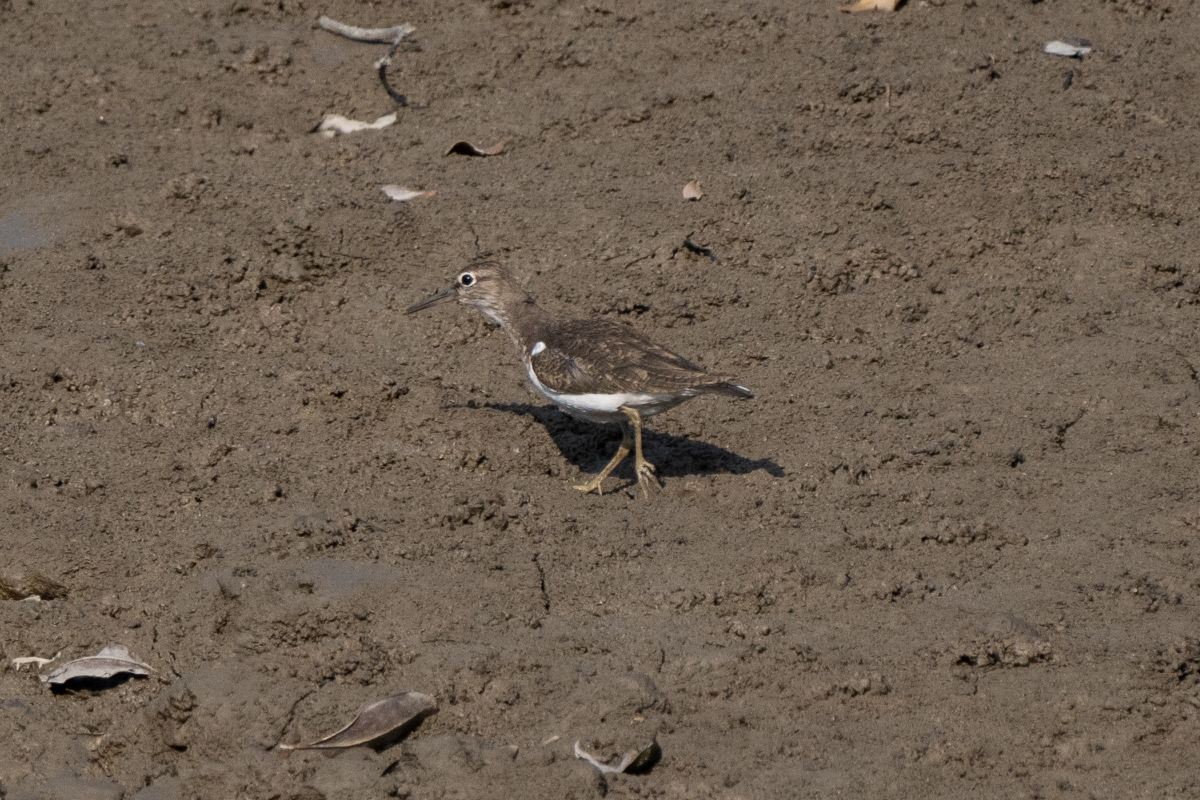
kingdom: Animalia
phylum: Chordata
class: Aves
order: Charadriiformes
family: Scolopacidae
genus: Actitis
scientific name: Actitis hypoleucos
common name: Common sandpiper
